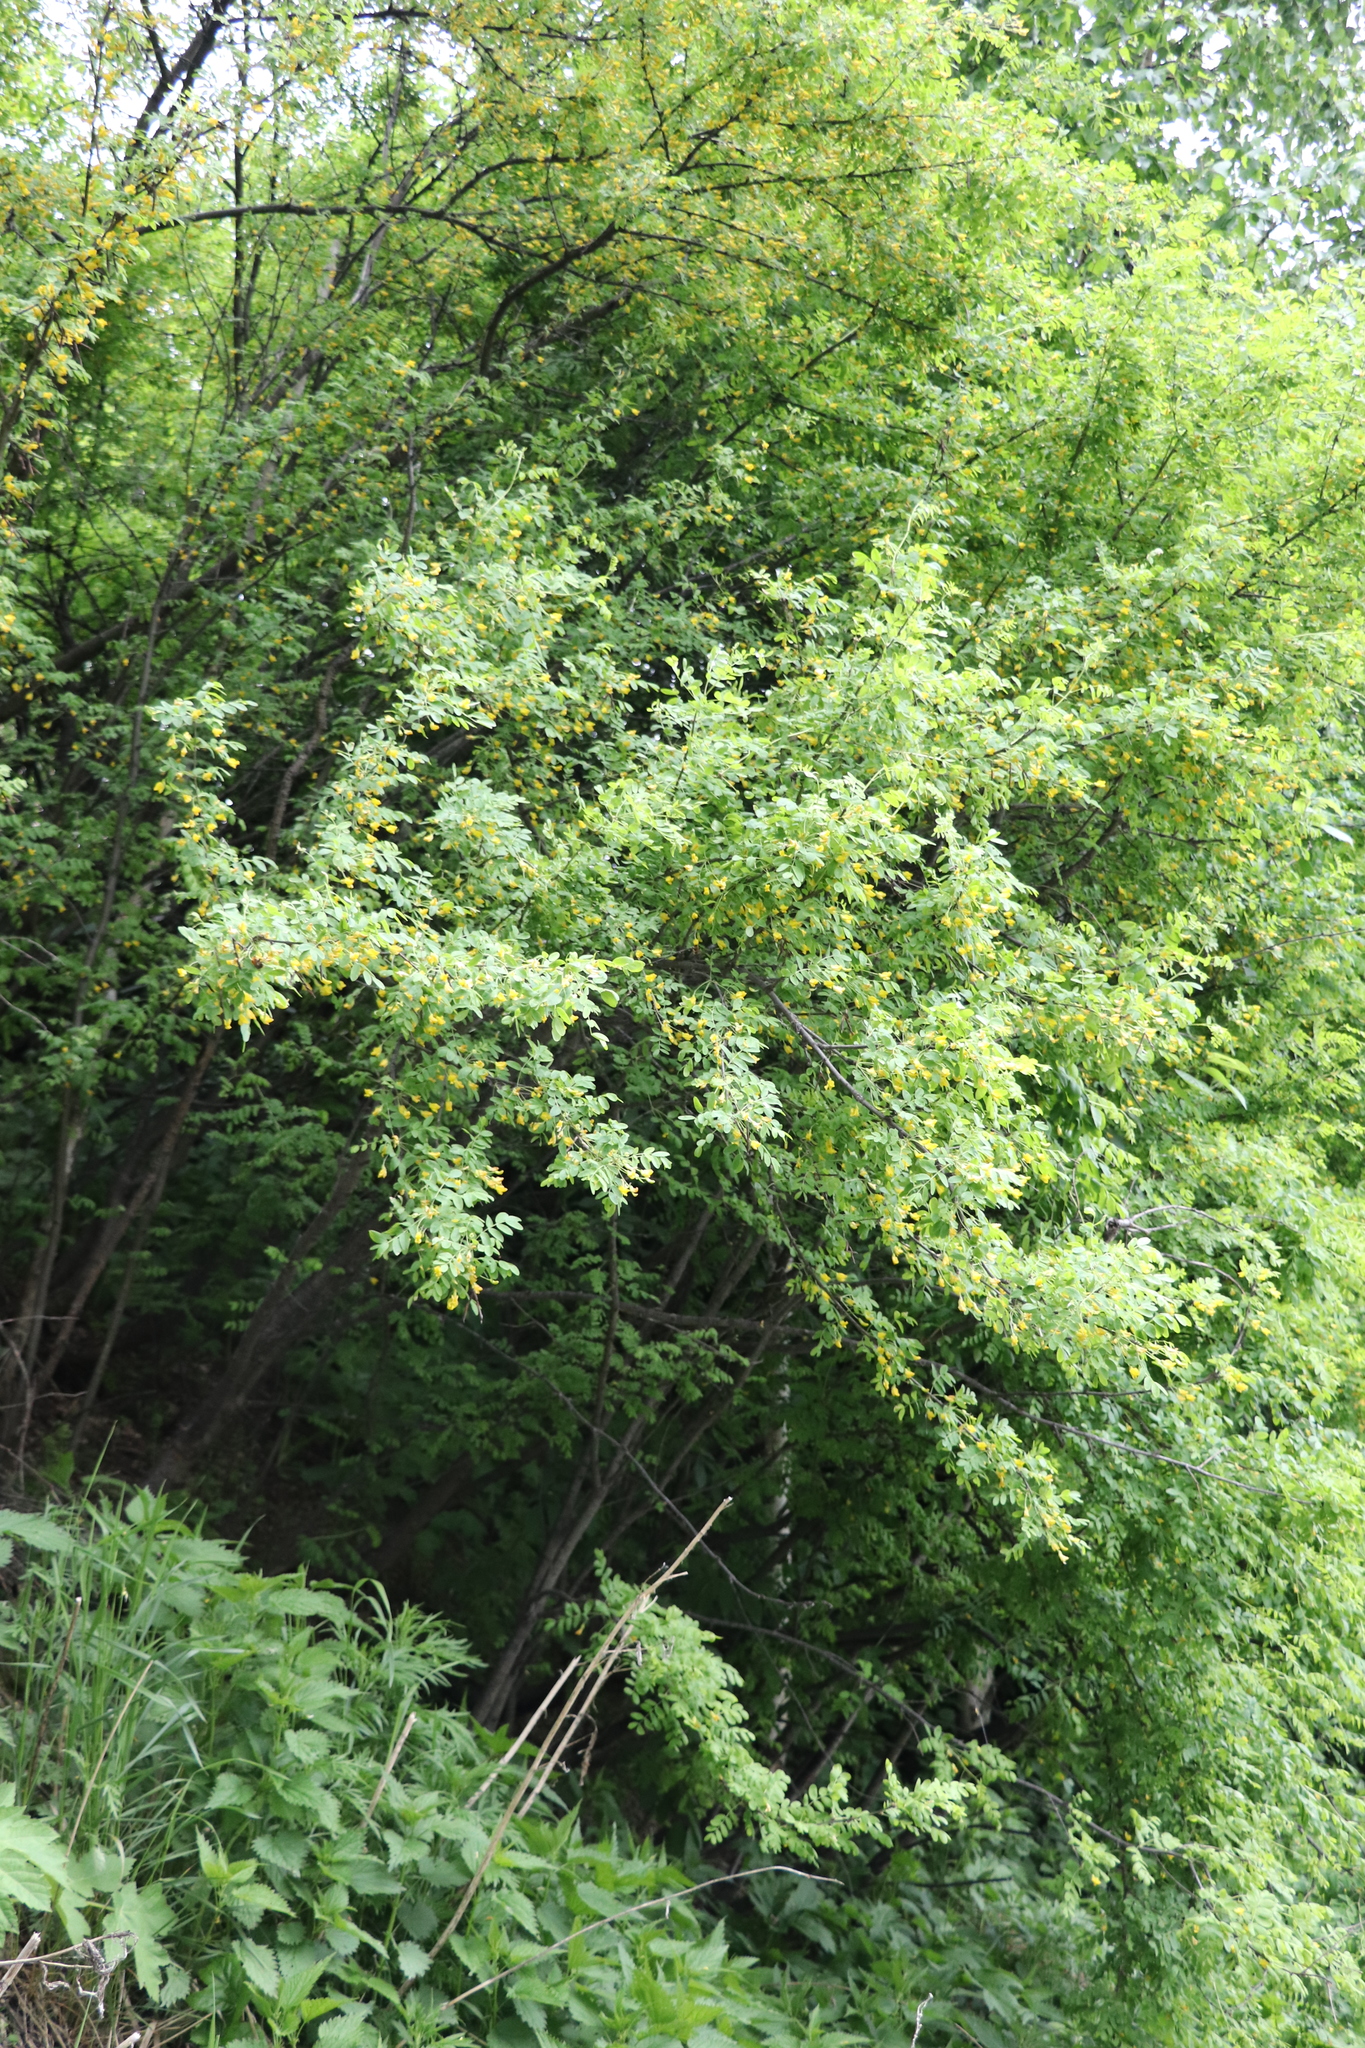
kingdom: Plantae
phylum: Tracheophyta
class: Magnoliopsida
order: Fabales
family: Fabaceae
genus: Caragana
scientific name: Caragana arborescens
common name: Siberian peashrub
